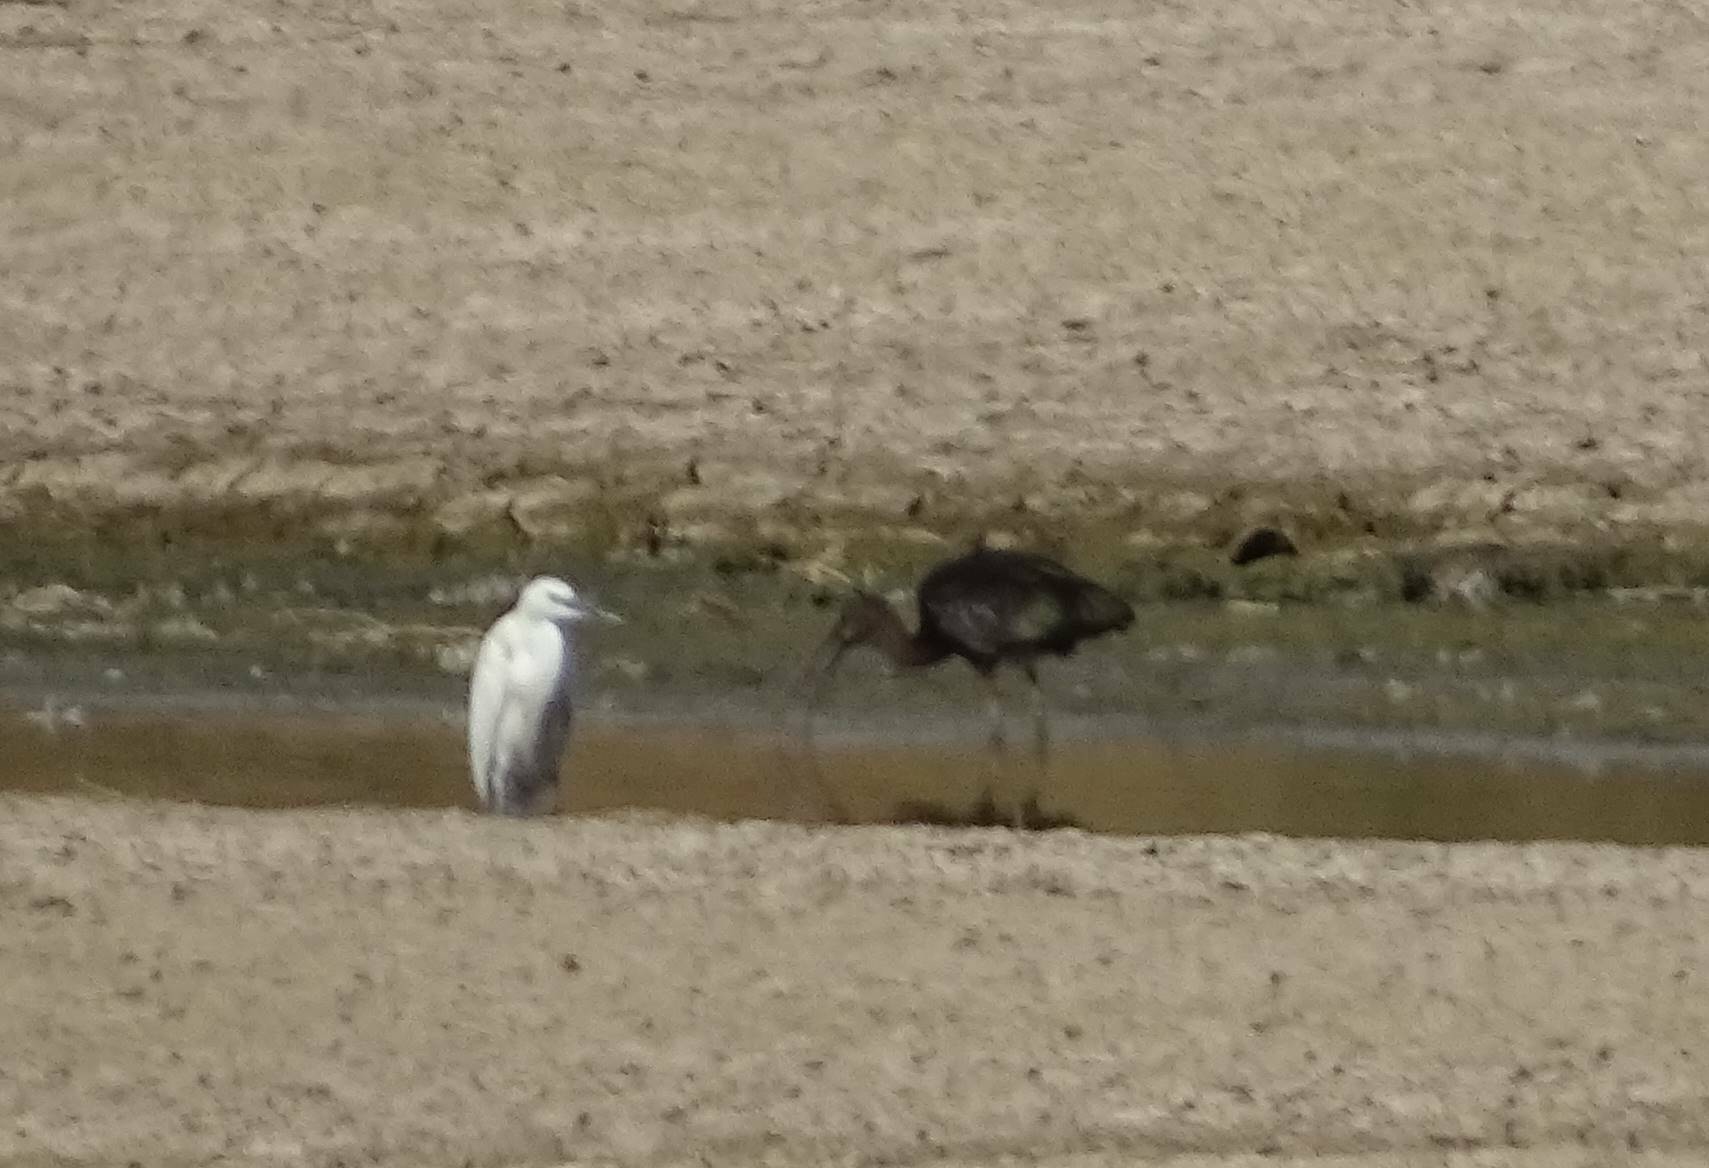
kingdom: Animalia
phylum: Chordata
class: Aves
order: Pelecaniformes
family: Ardeidae
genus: Egretta
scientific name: Egretta garzetta
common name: Little egret
